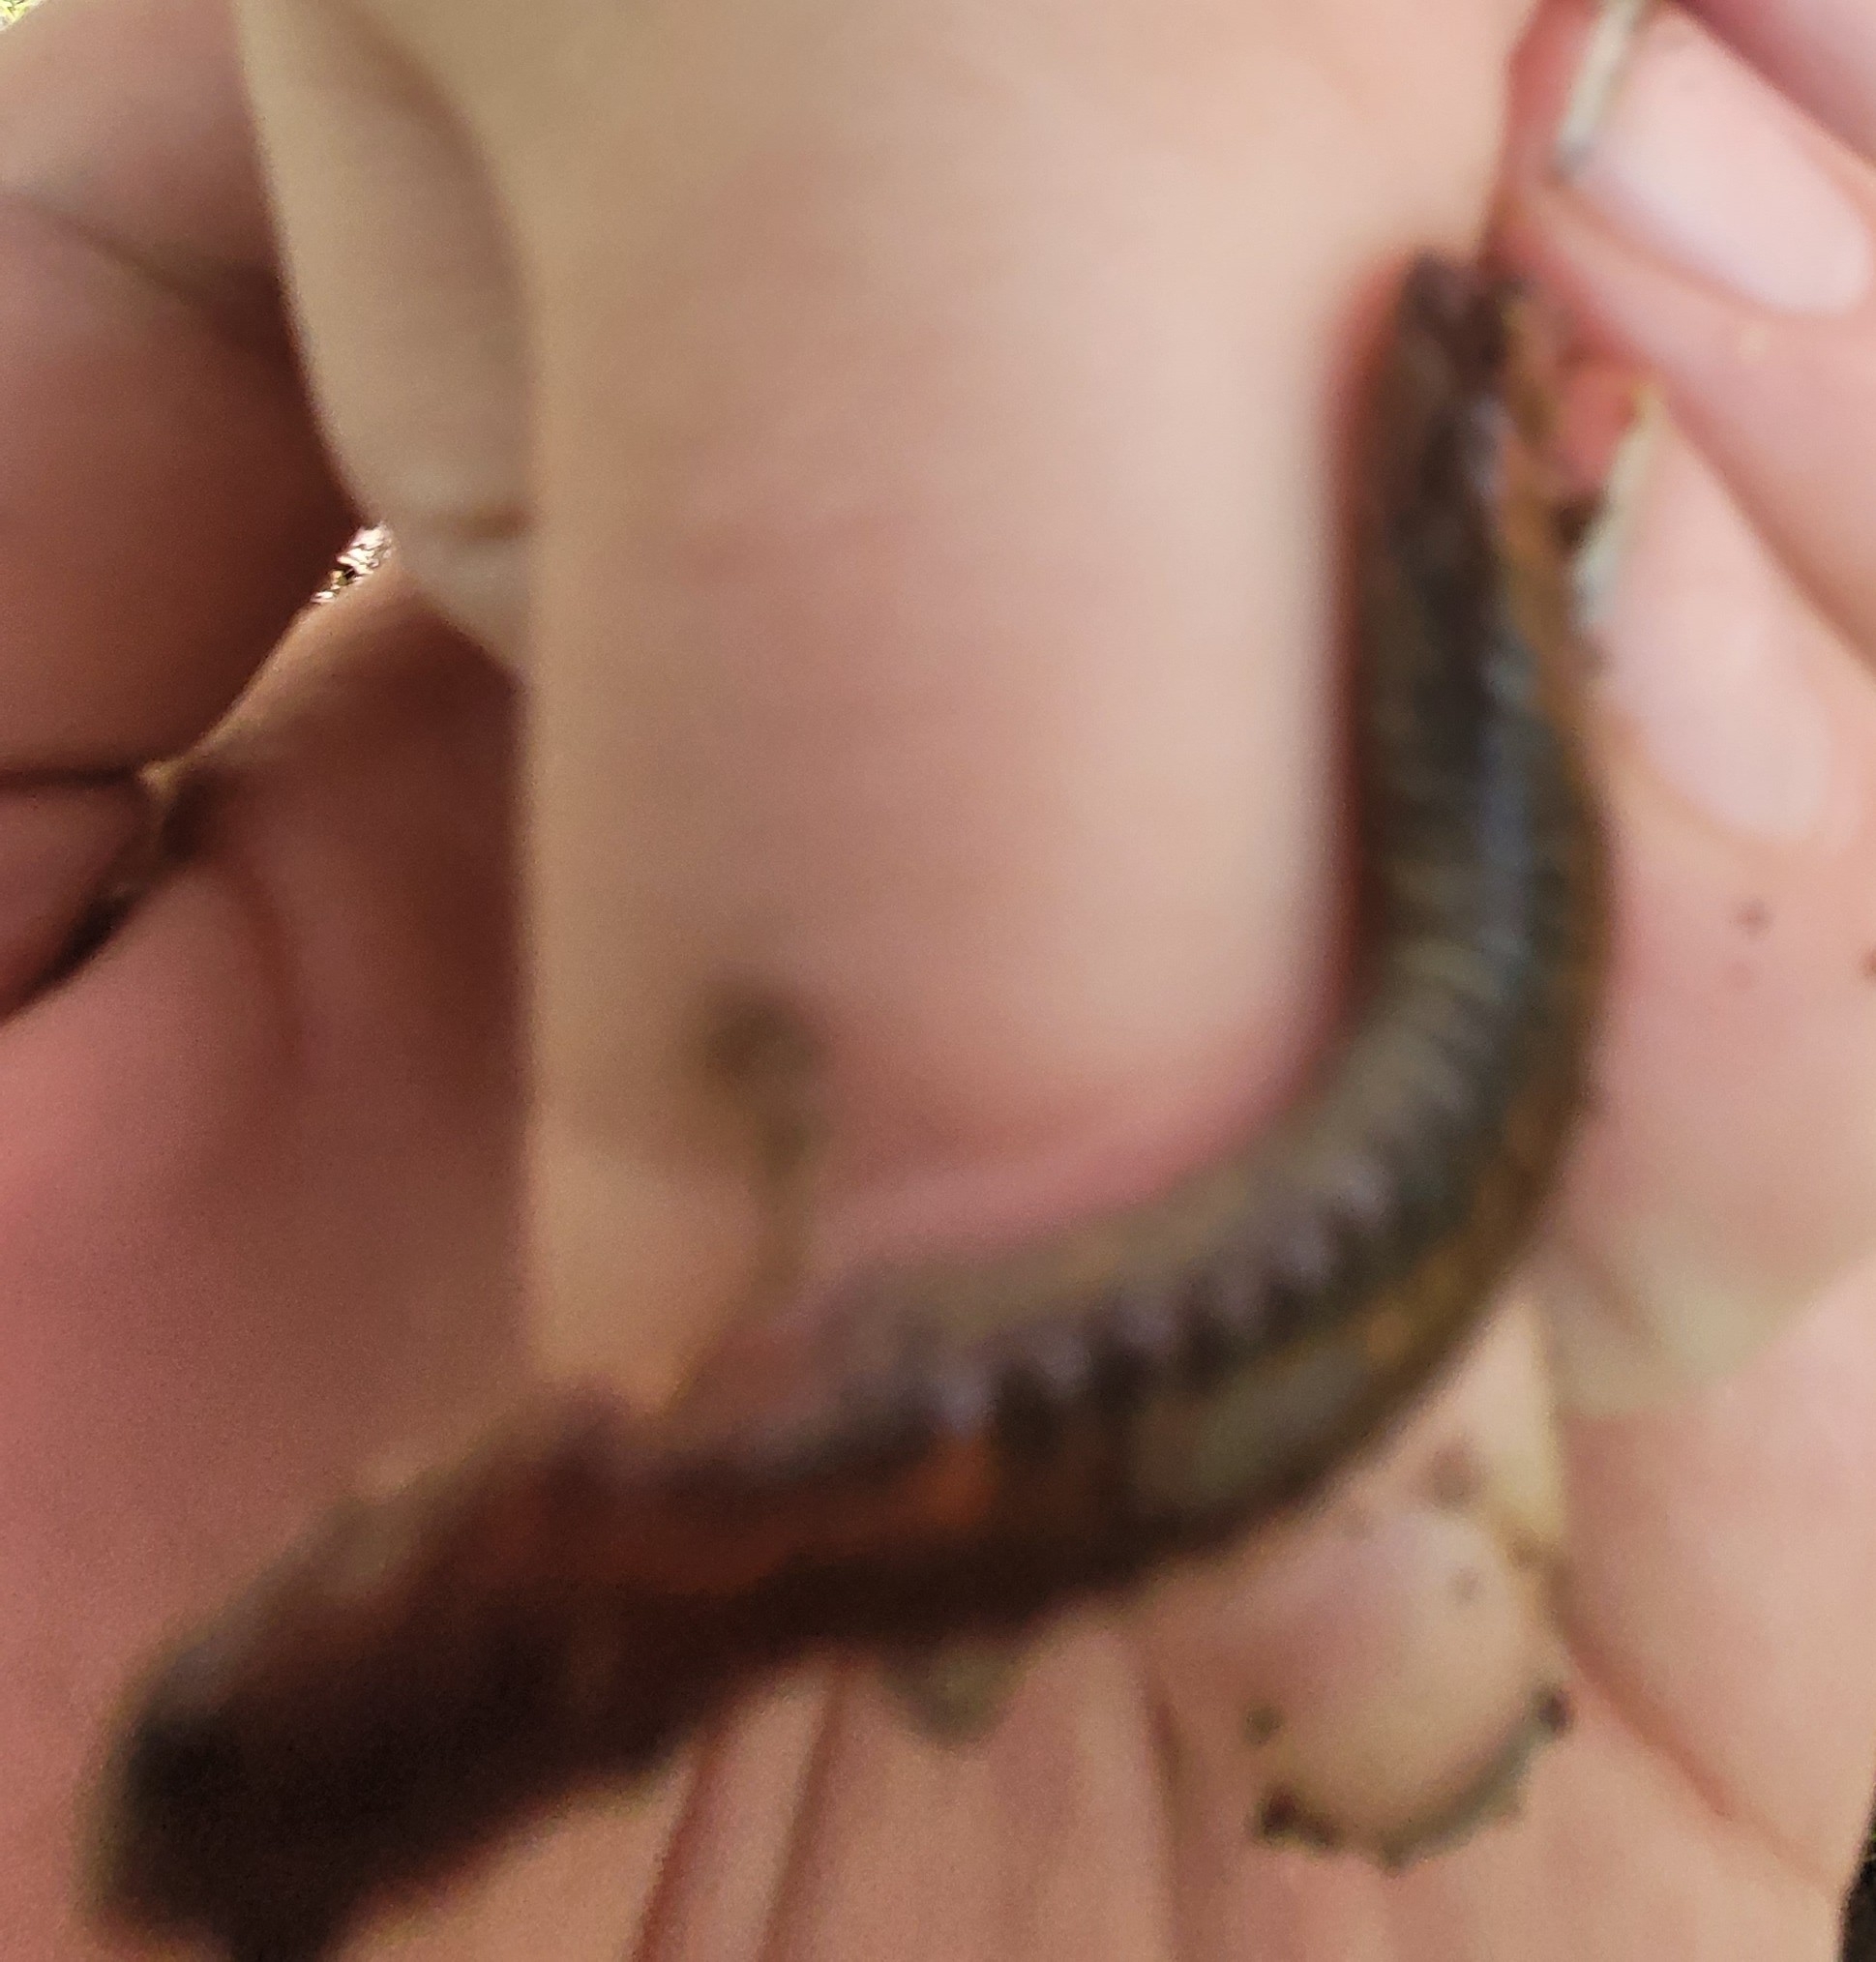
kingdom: Animalia
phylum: Chordata
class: Amphibia
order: Caudata
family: Plethodontidae
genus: Plethodon
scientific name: Plethodon cinereus
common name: Redback salamander
